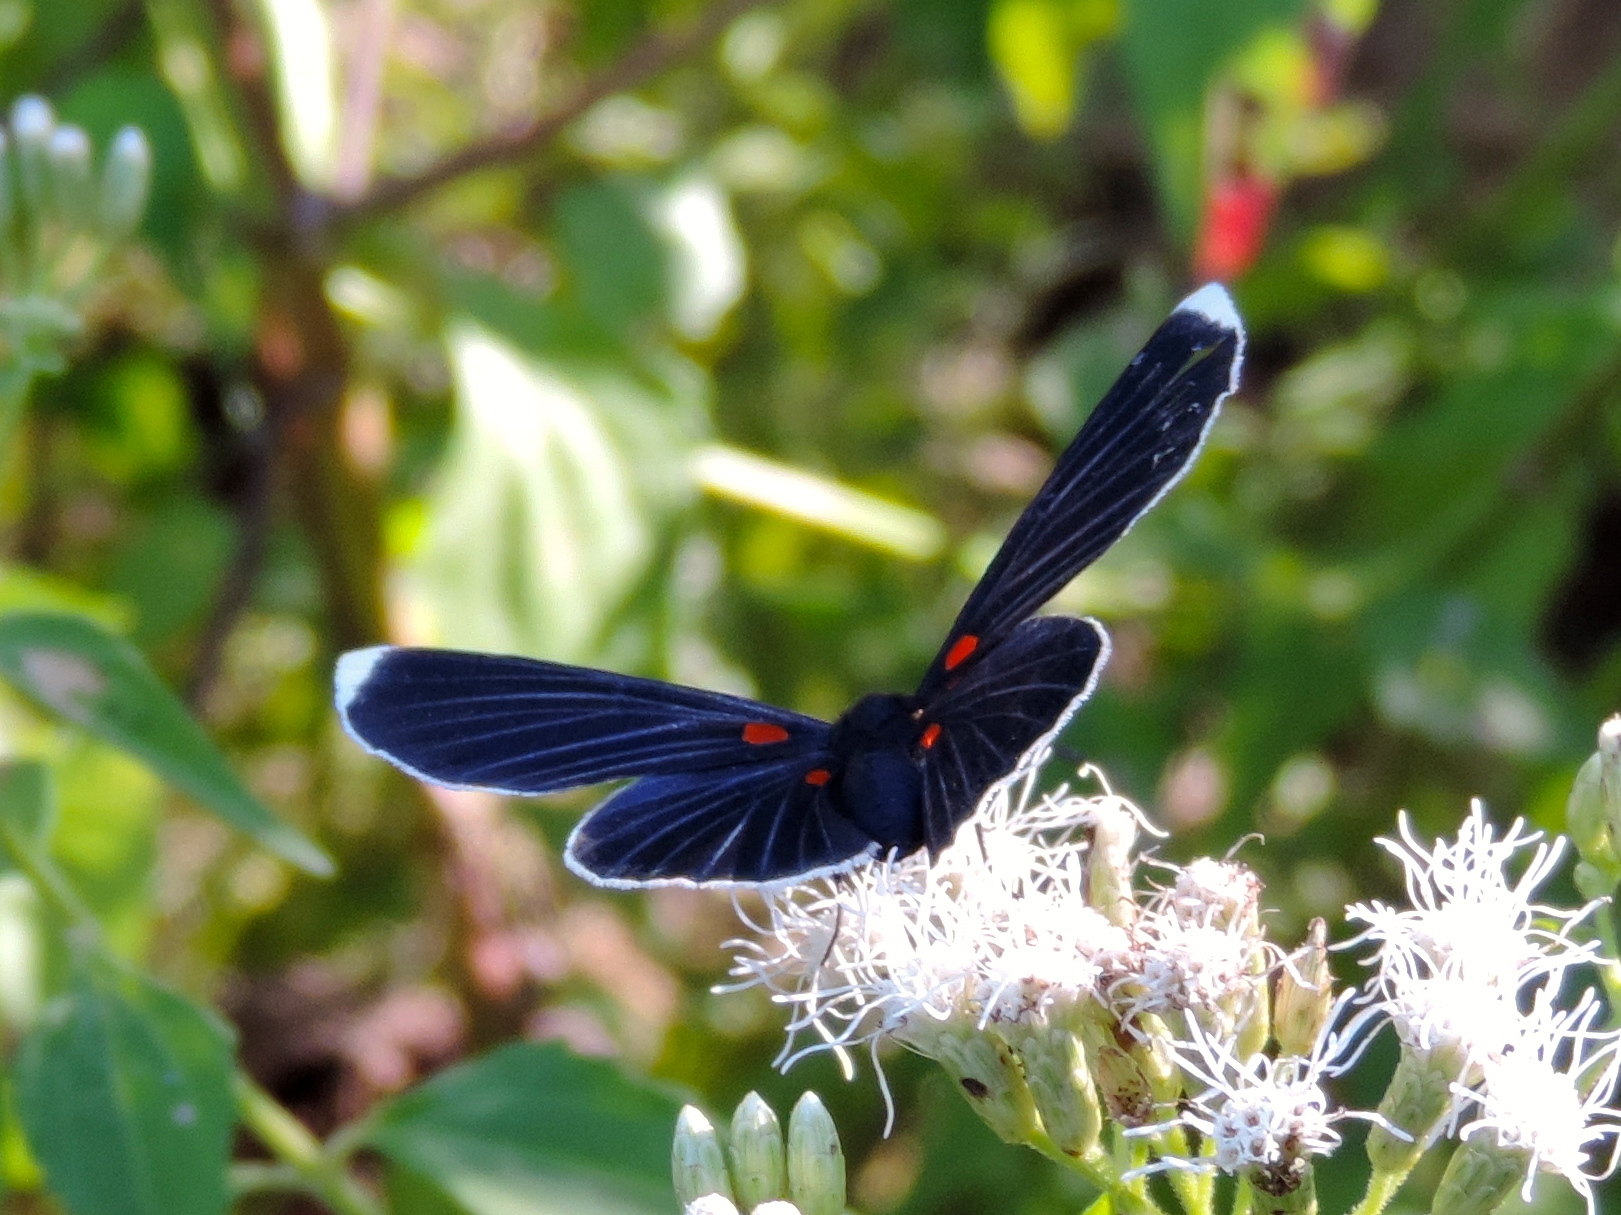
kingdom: Animalia
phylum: Arthropoda
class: Insecta
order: Lepidoptera
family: Lycaenidae
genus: Melanis
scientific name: Melanis
